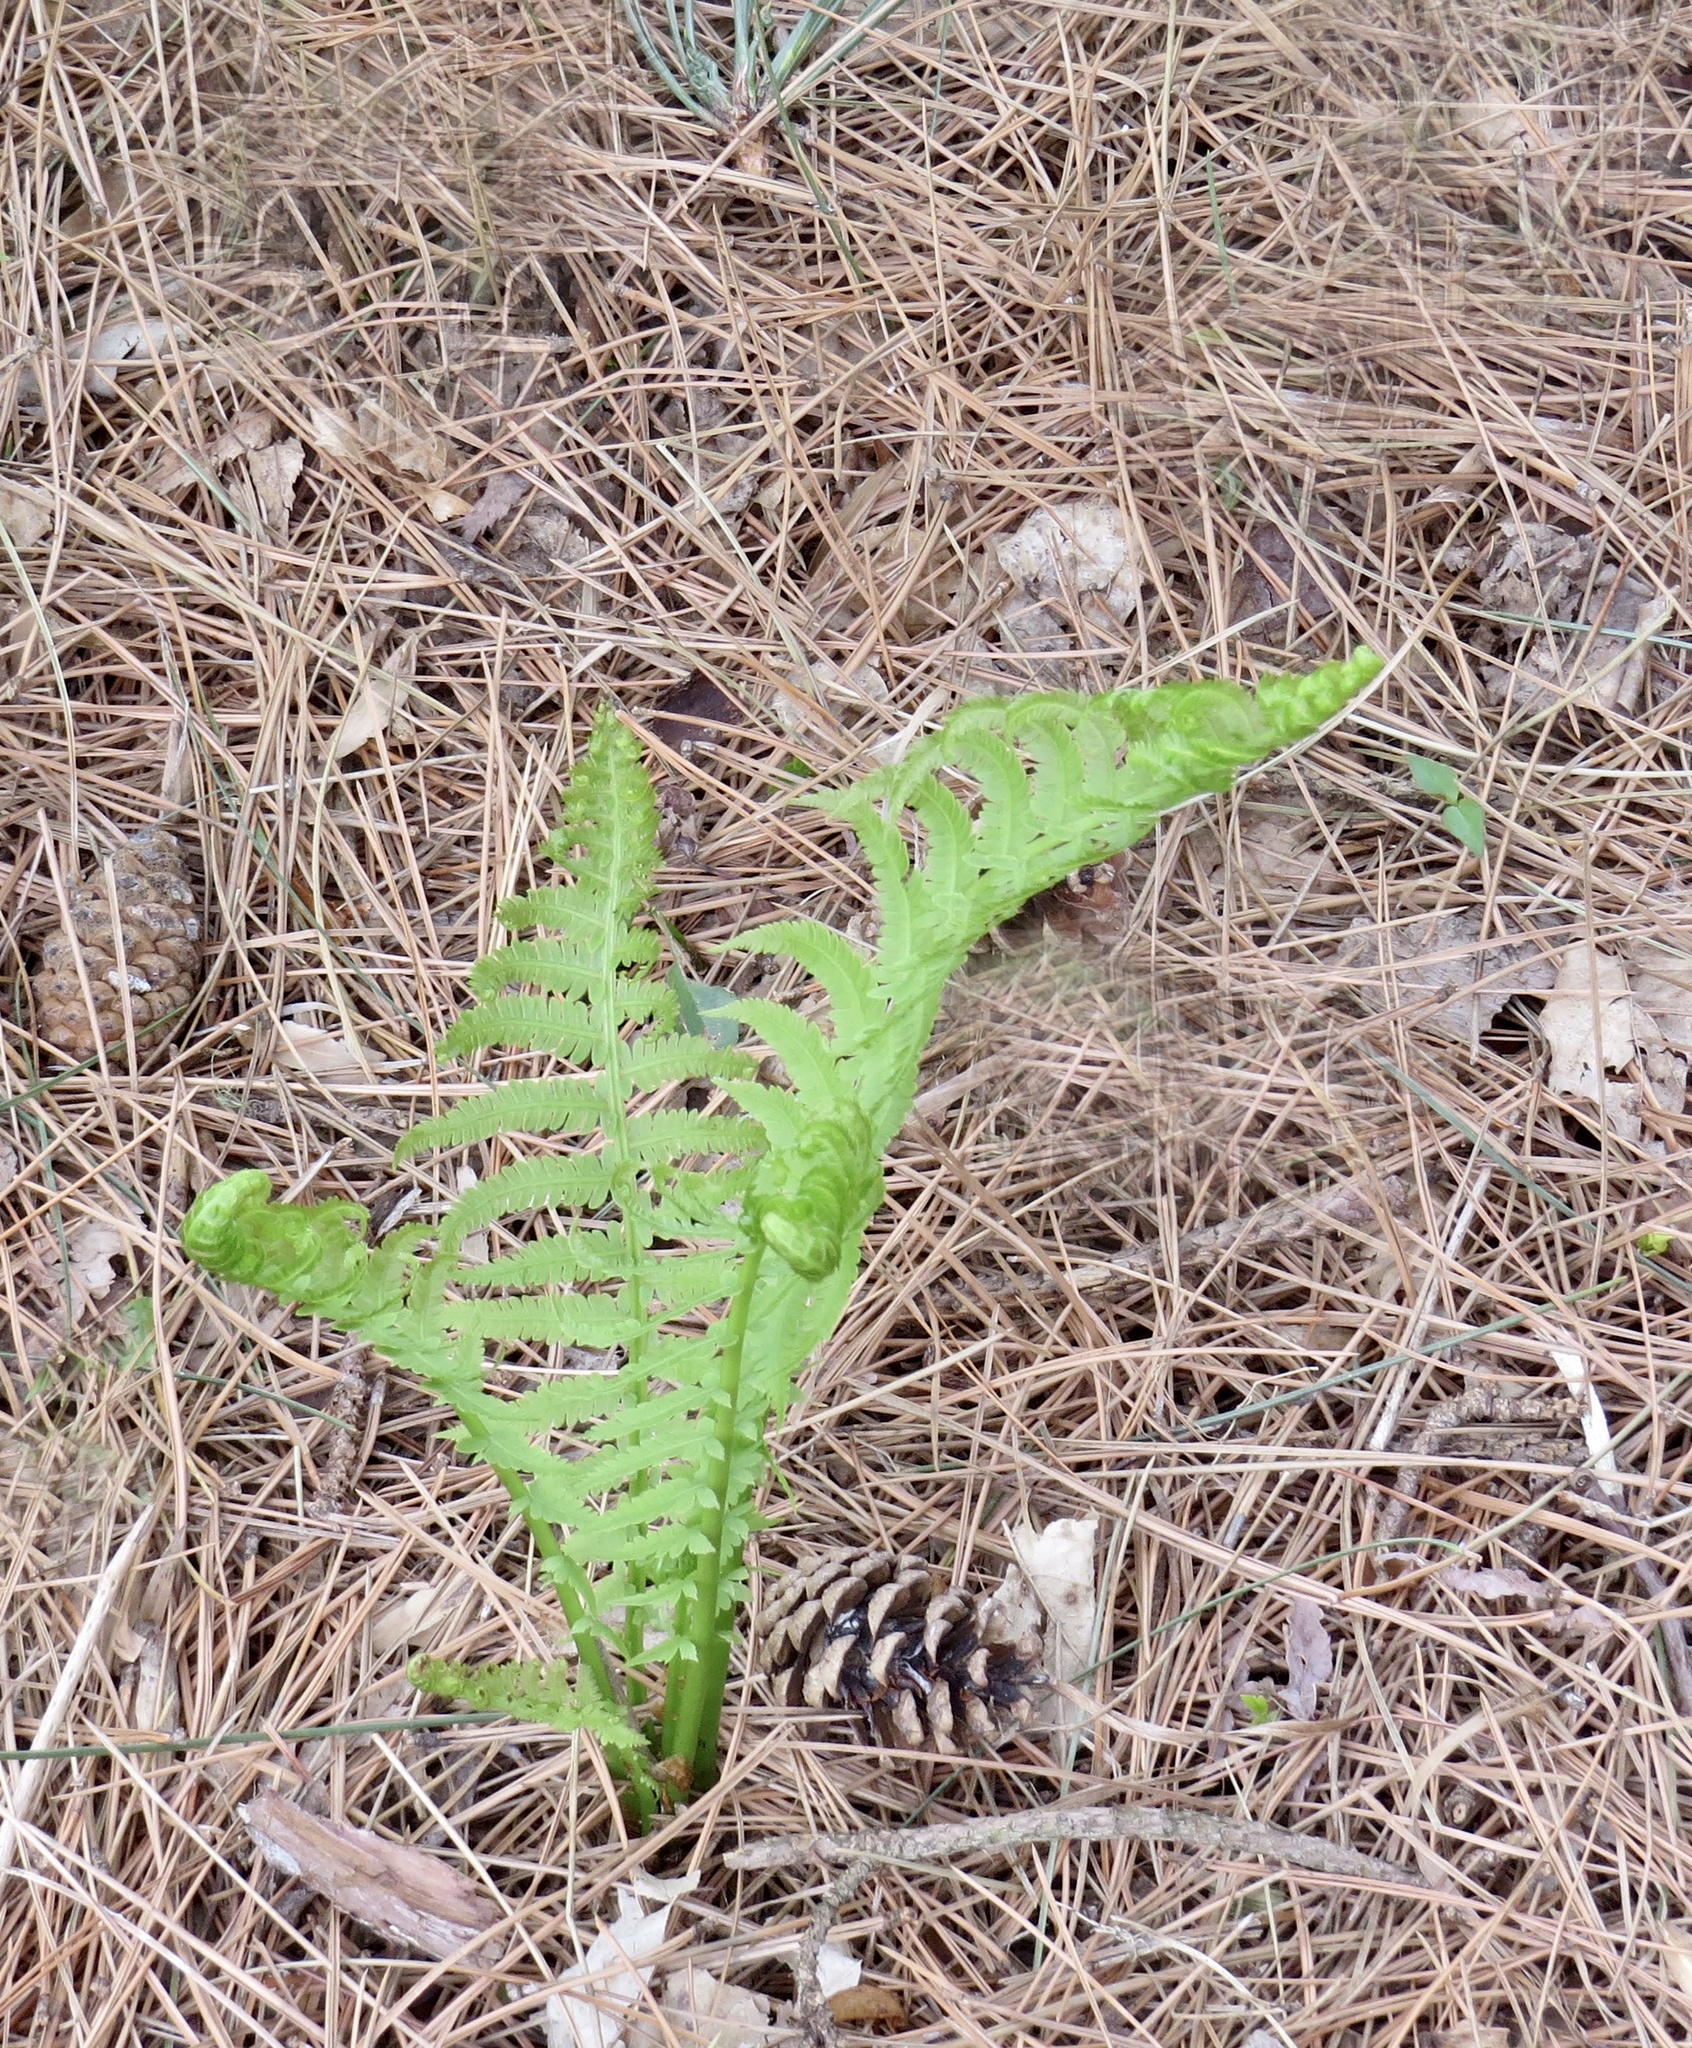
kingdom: Plantae
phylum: Tracheophyta
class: Polypodiopsida
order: Polypodiales
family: Onocleaceae
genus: Matteuccia
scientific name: Matteuccia struthiopteris
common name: Ostrich fern
